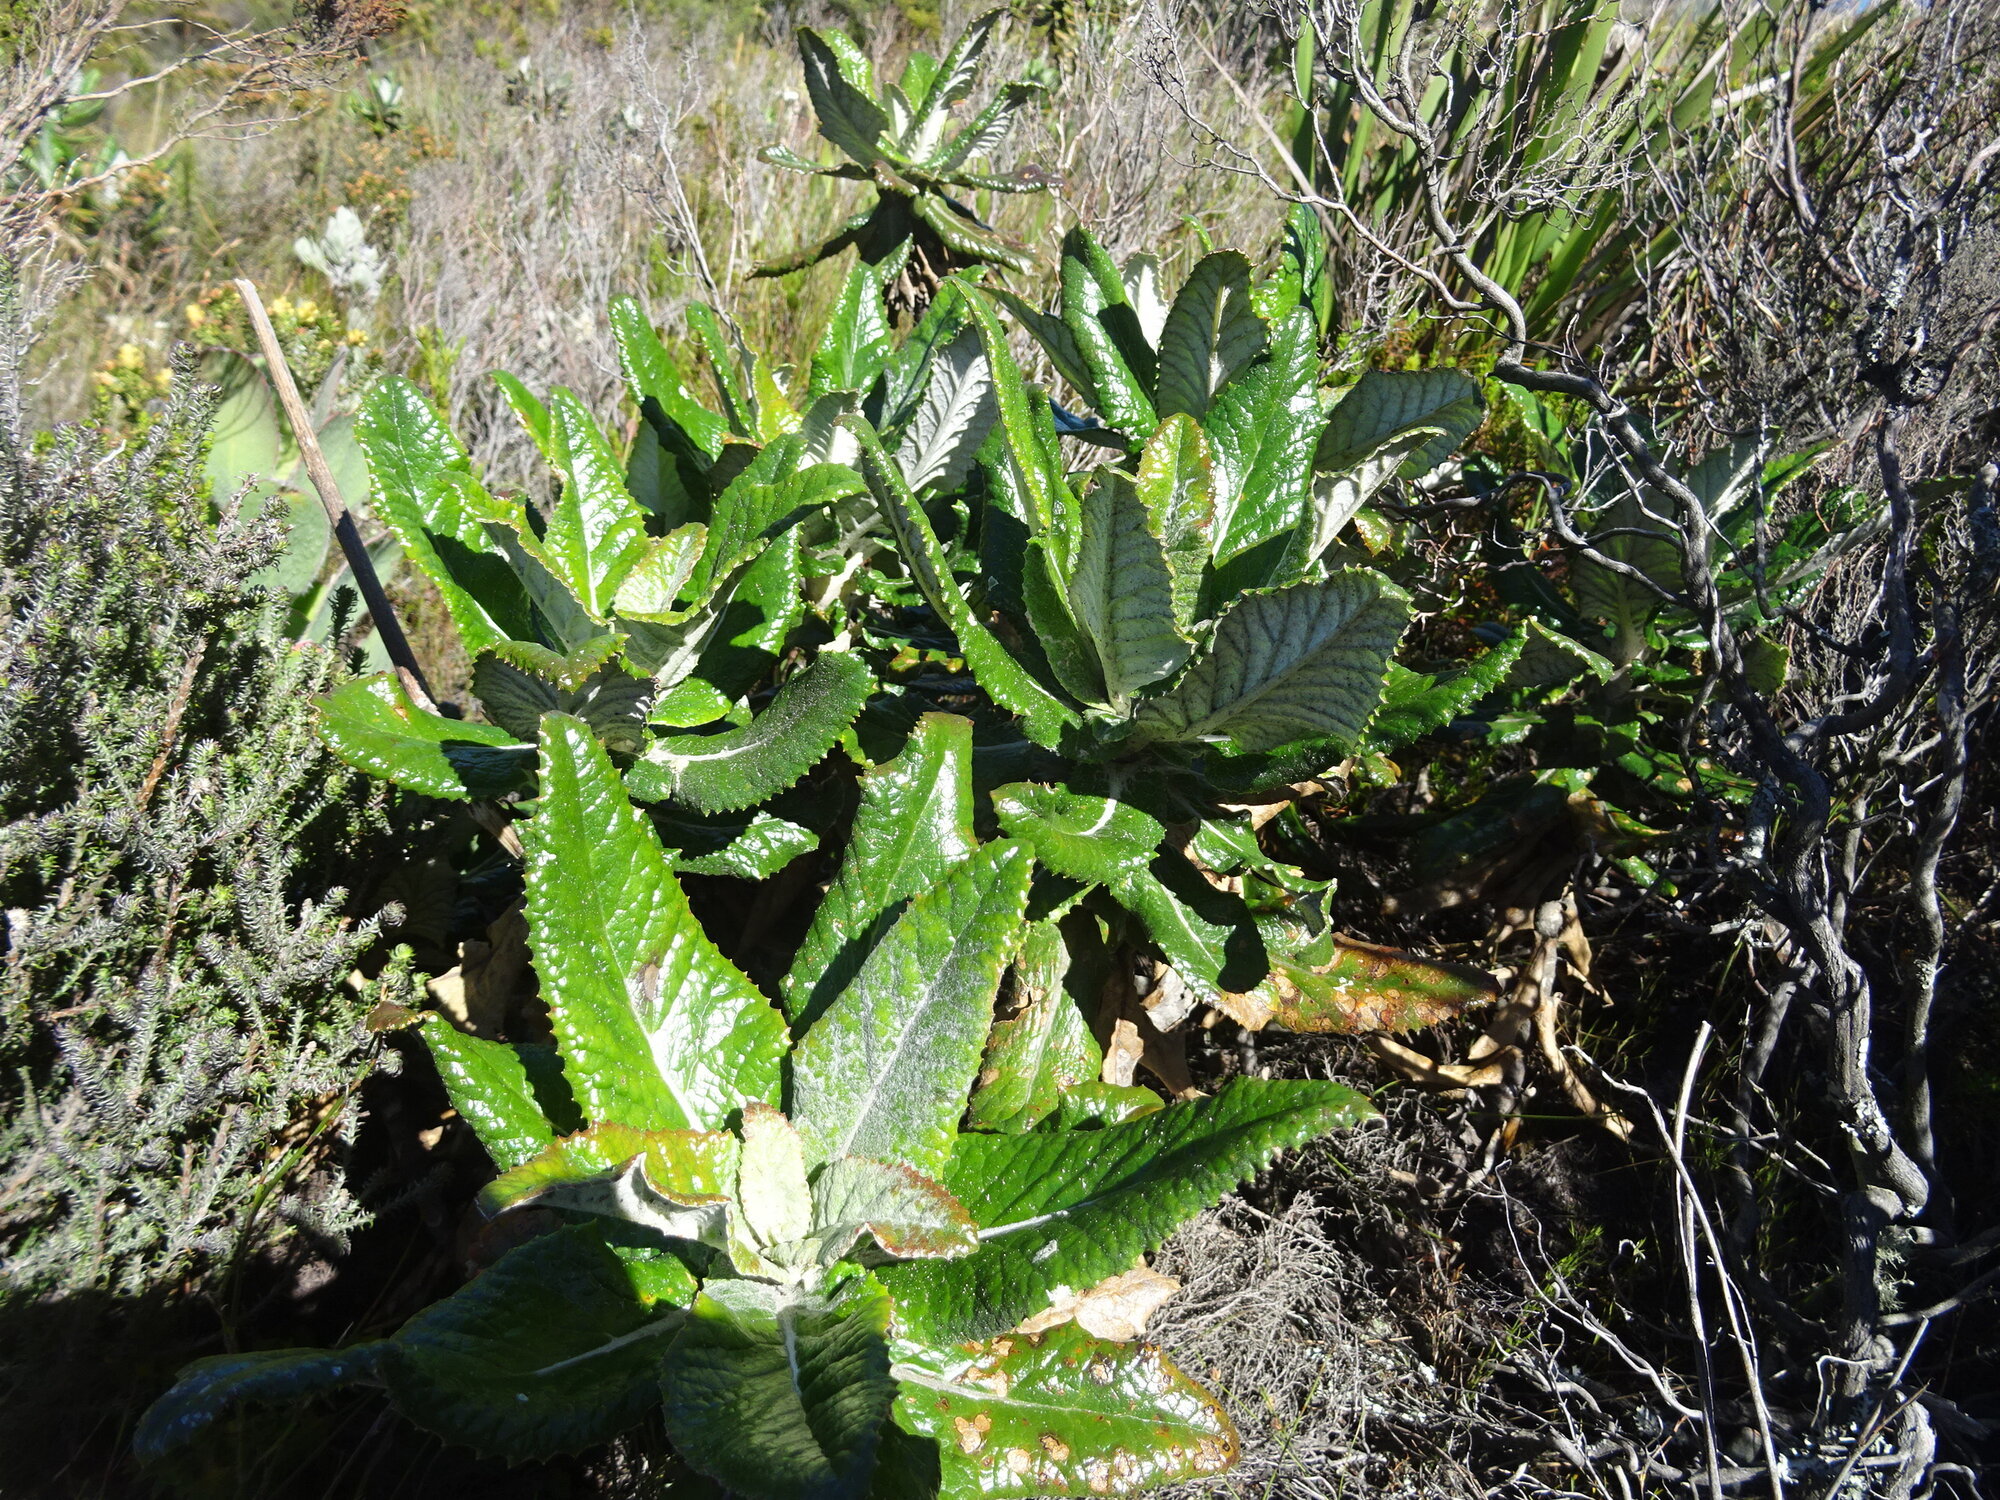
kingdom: Plantae
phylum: Tracheophyta
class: Magnoliopsida
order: Apiales
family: Apiaceae
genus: Hermas
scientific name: Hermas villosa
